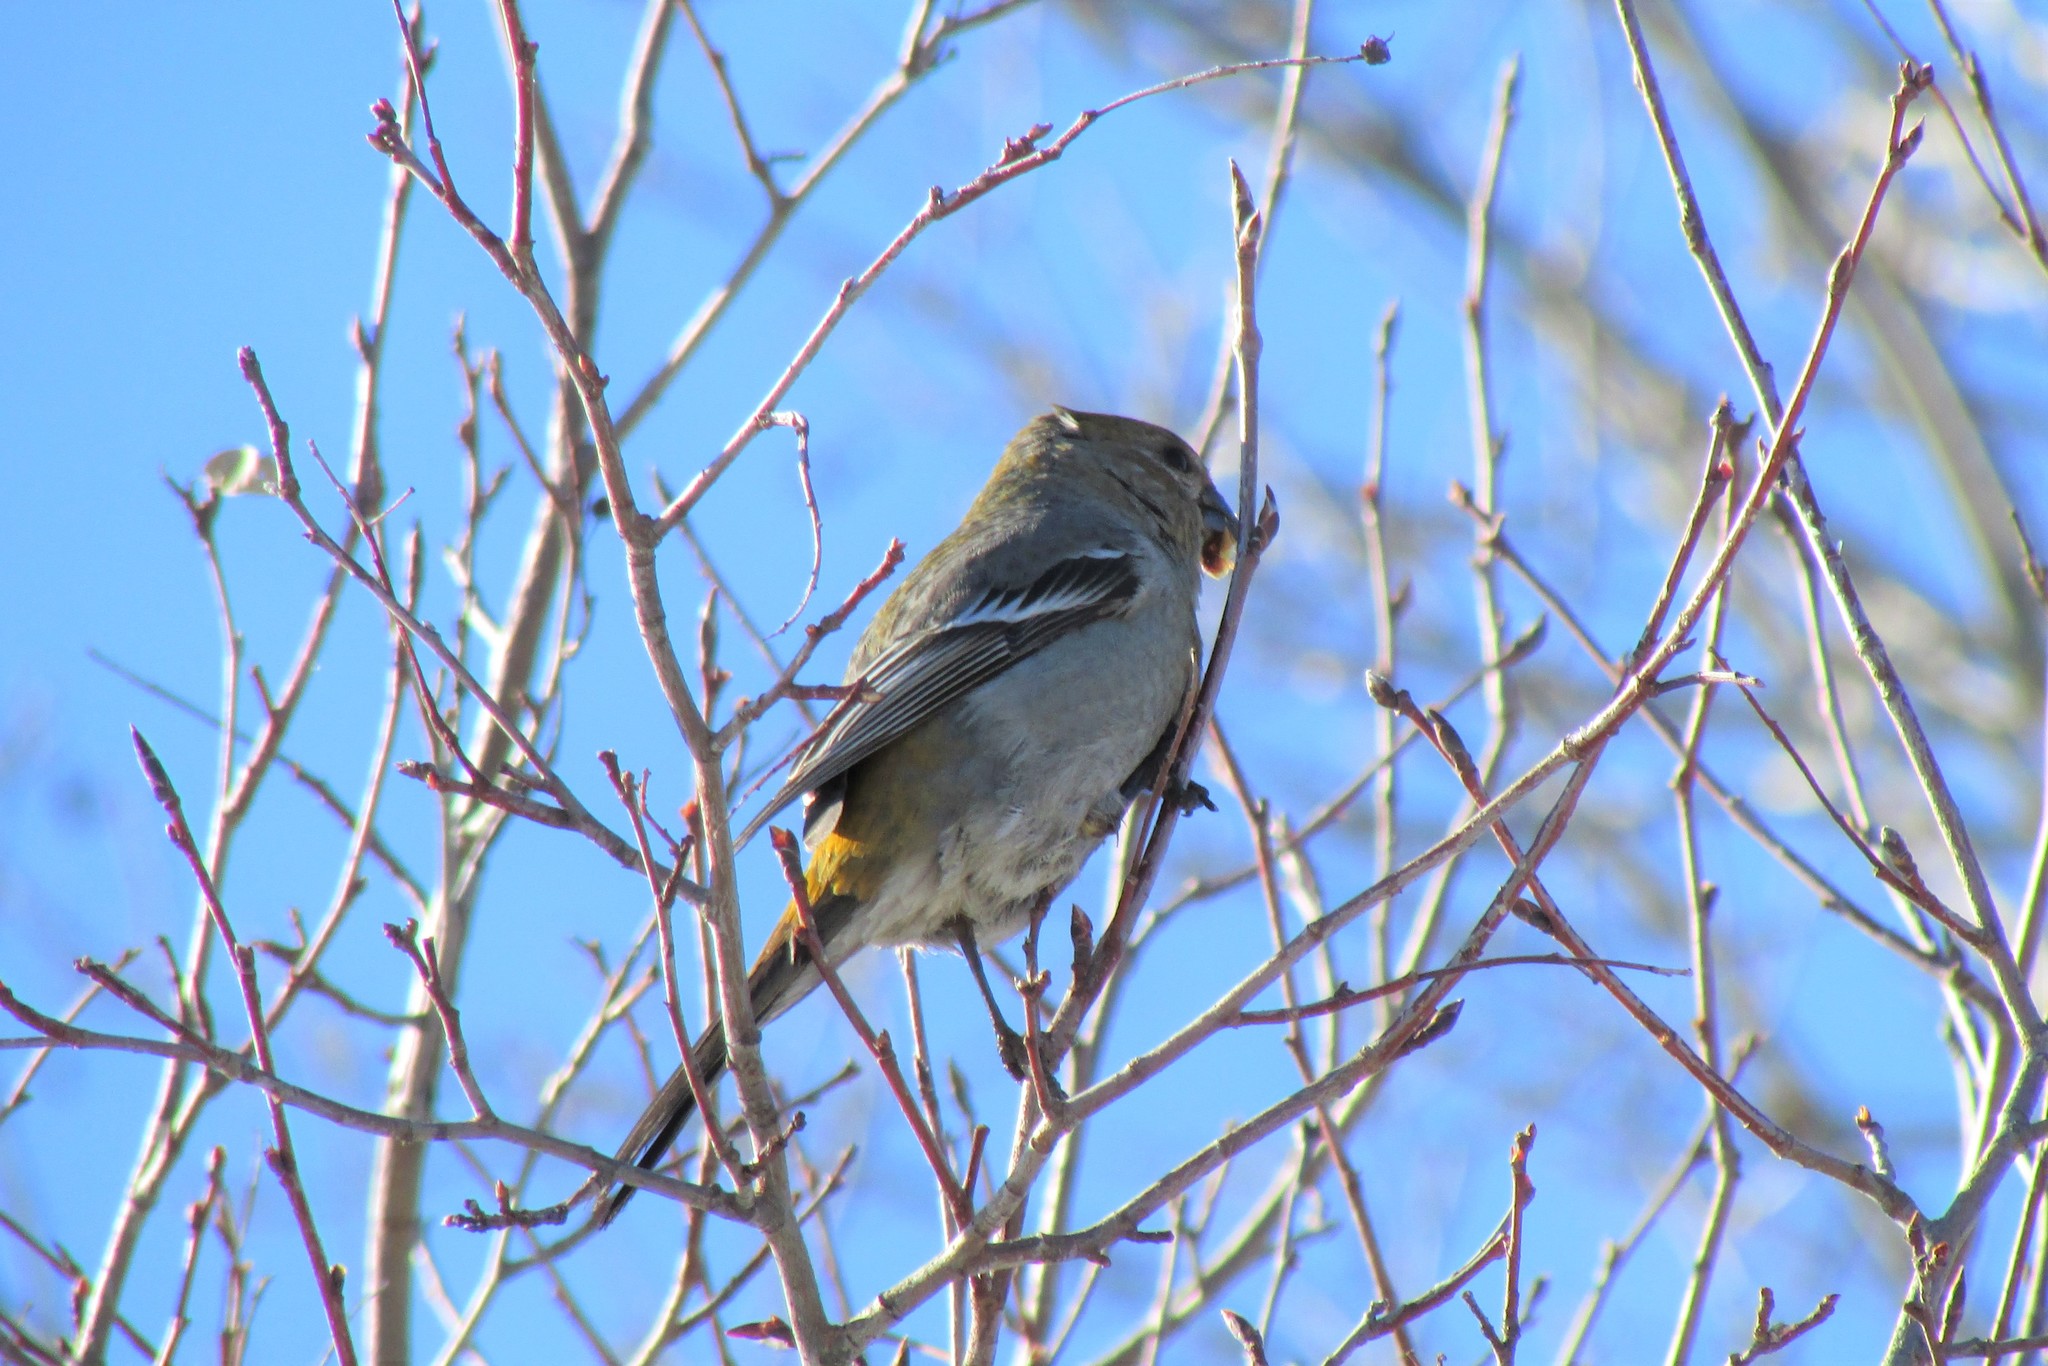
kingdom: Animalia
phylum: Chordata
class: Aves
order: Passeriformes
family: Fringillidae
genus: Pinicola
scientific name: Pinicola enucleator
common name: Pine grosbeak
